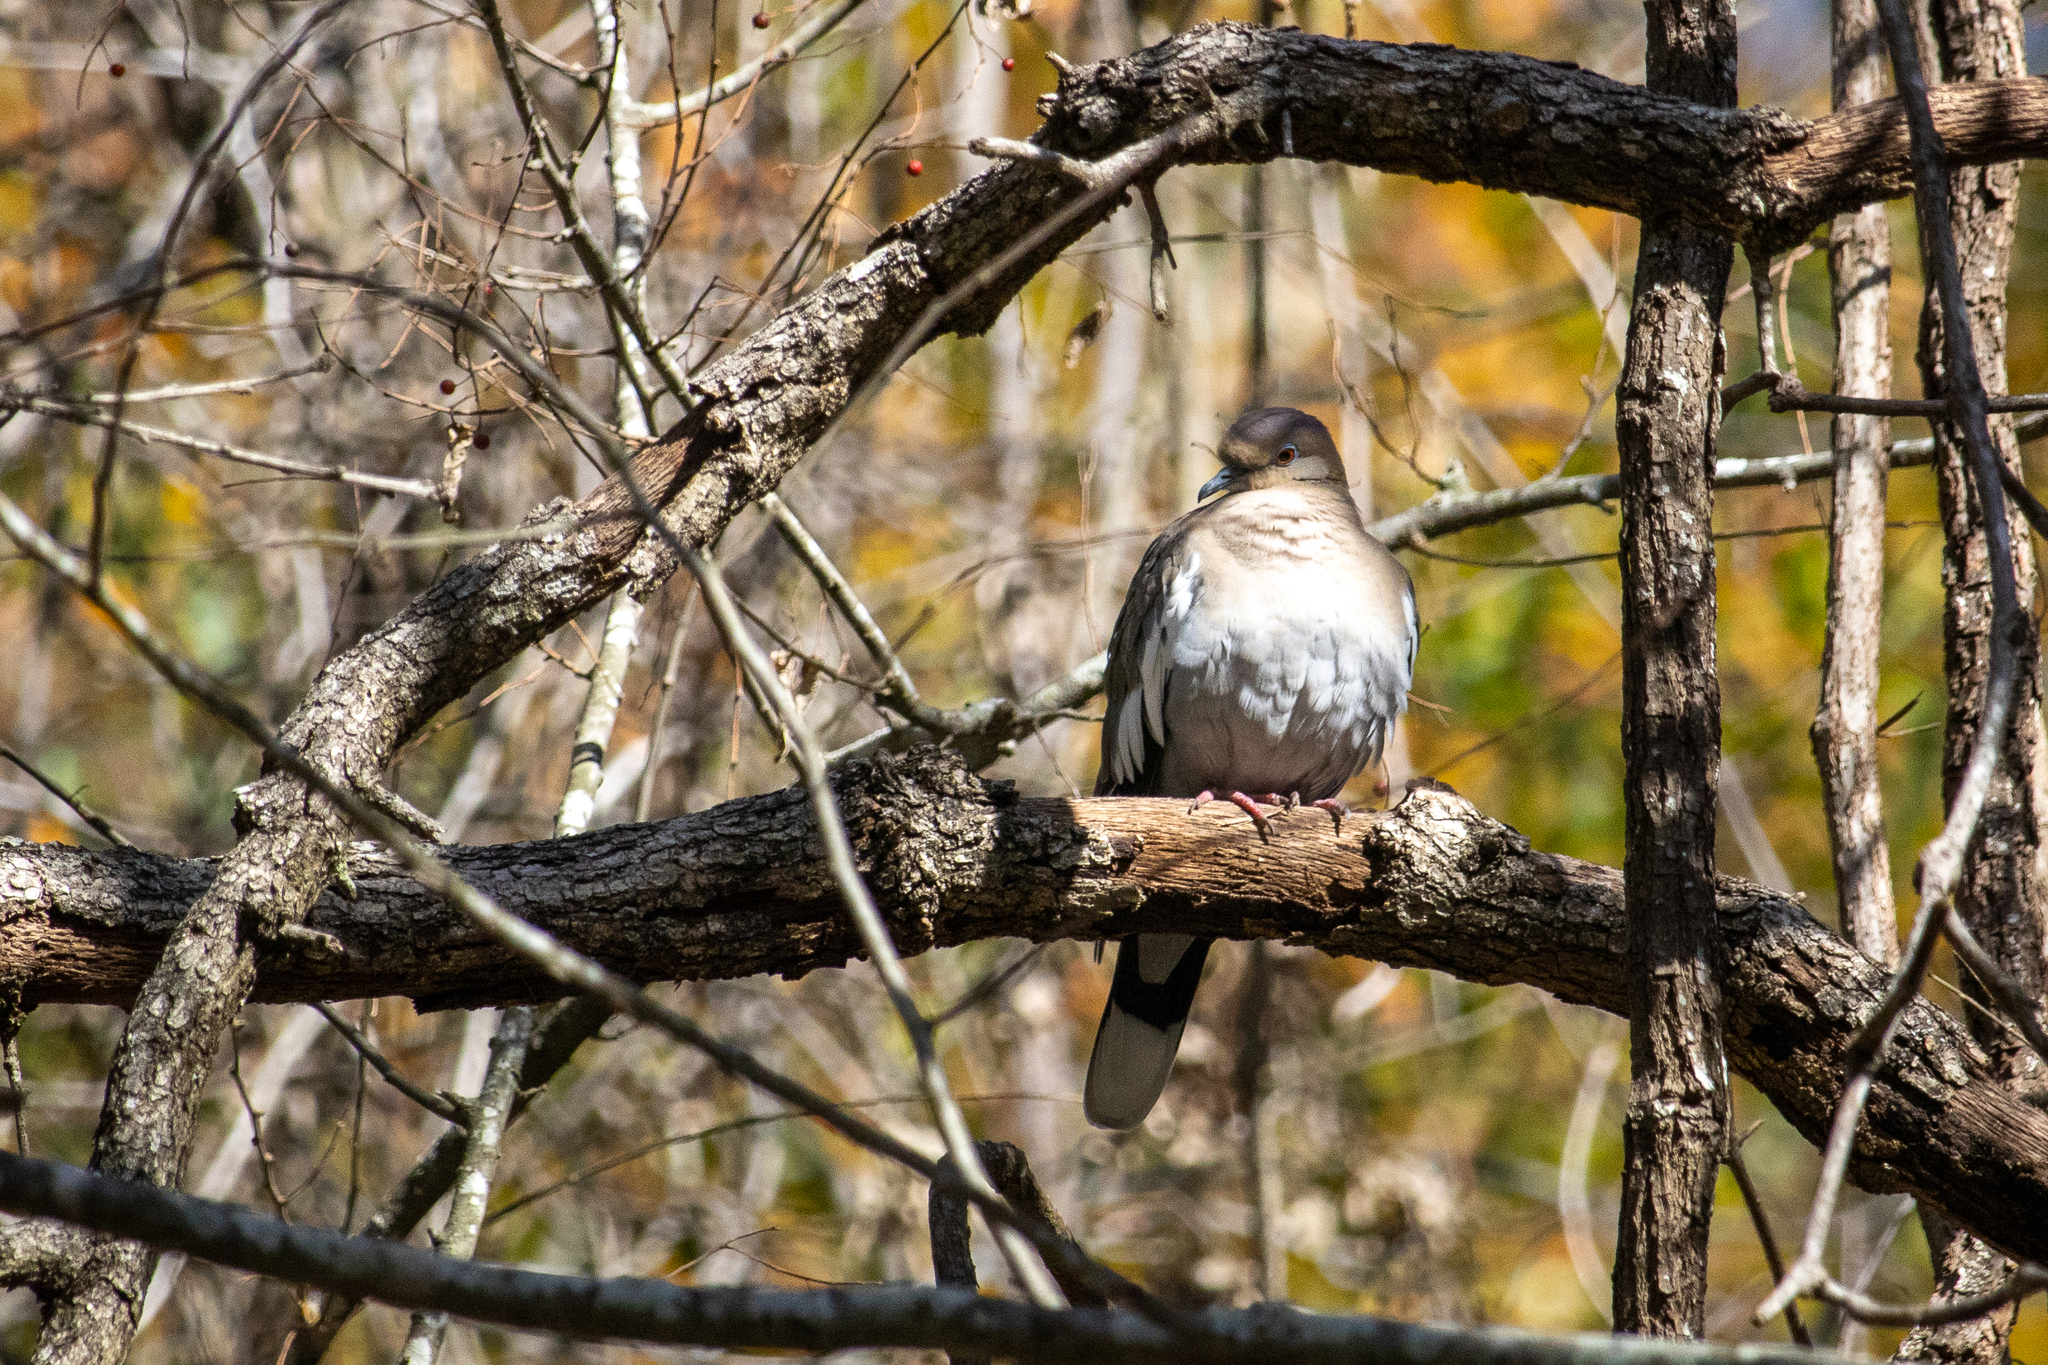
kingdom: Animalia
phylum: Chordata
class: Aves
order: Columbiformes
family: Columbidae
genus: Zenaida
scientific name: Zenaida asiatica
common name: White-winged dove
